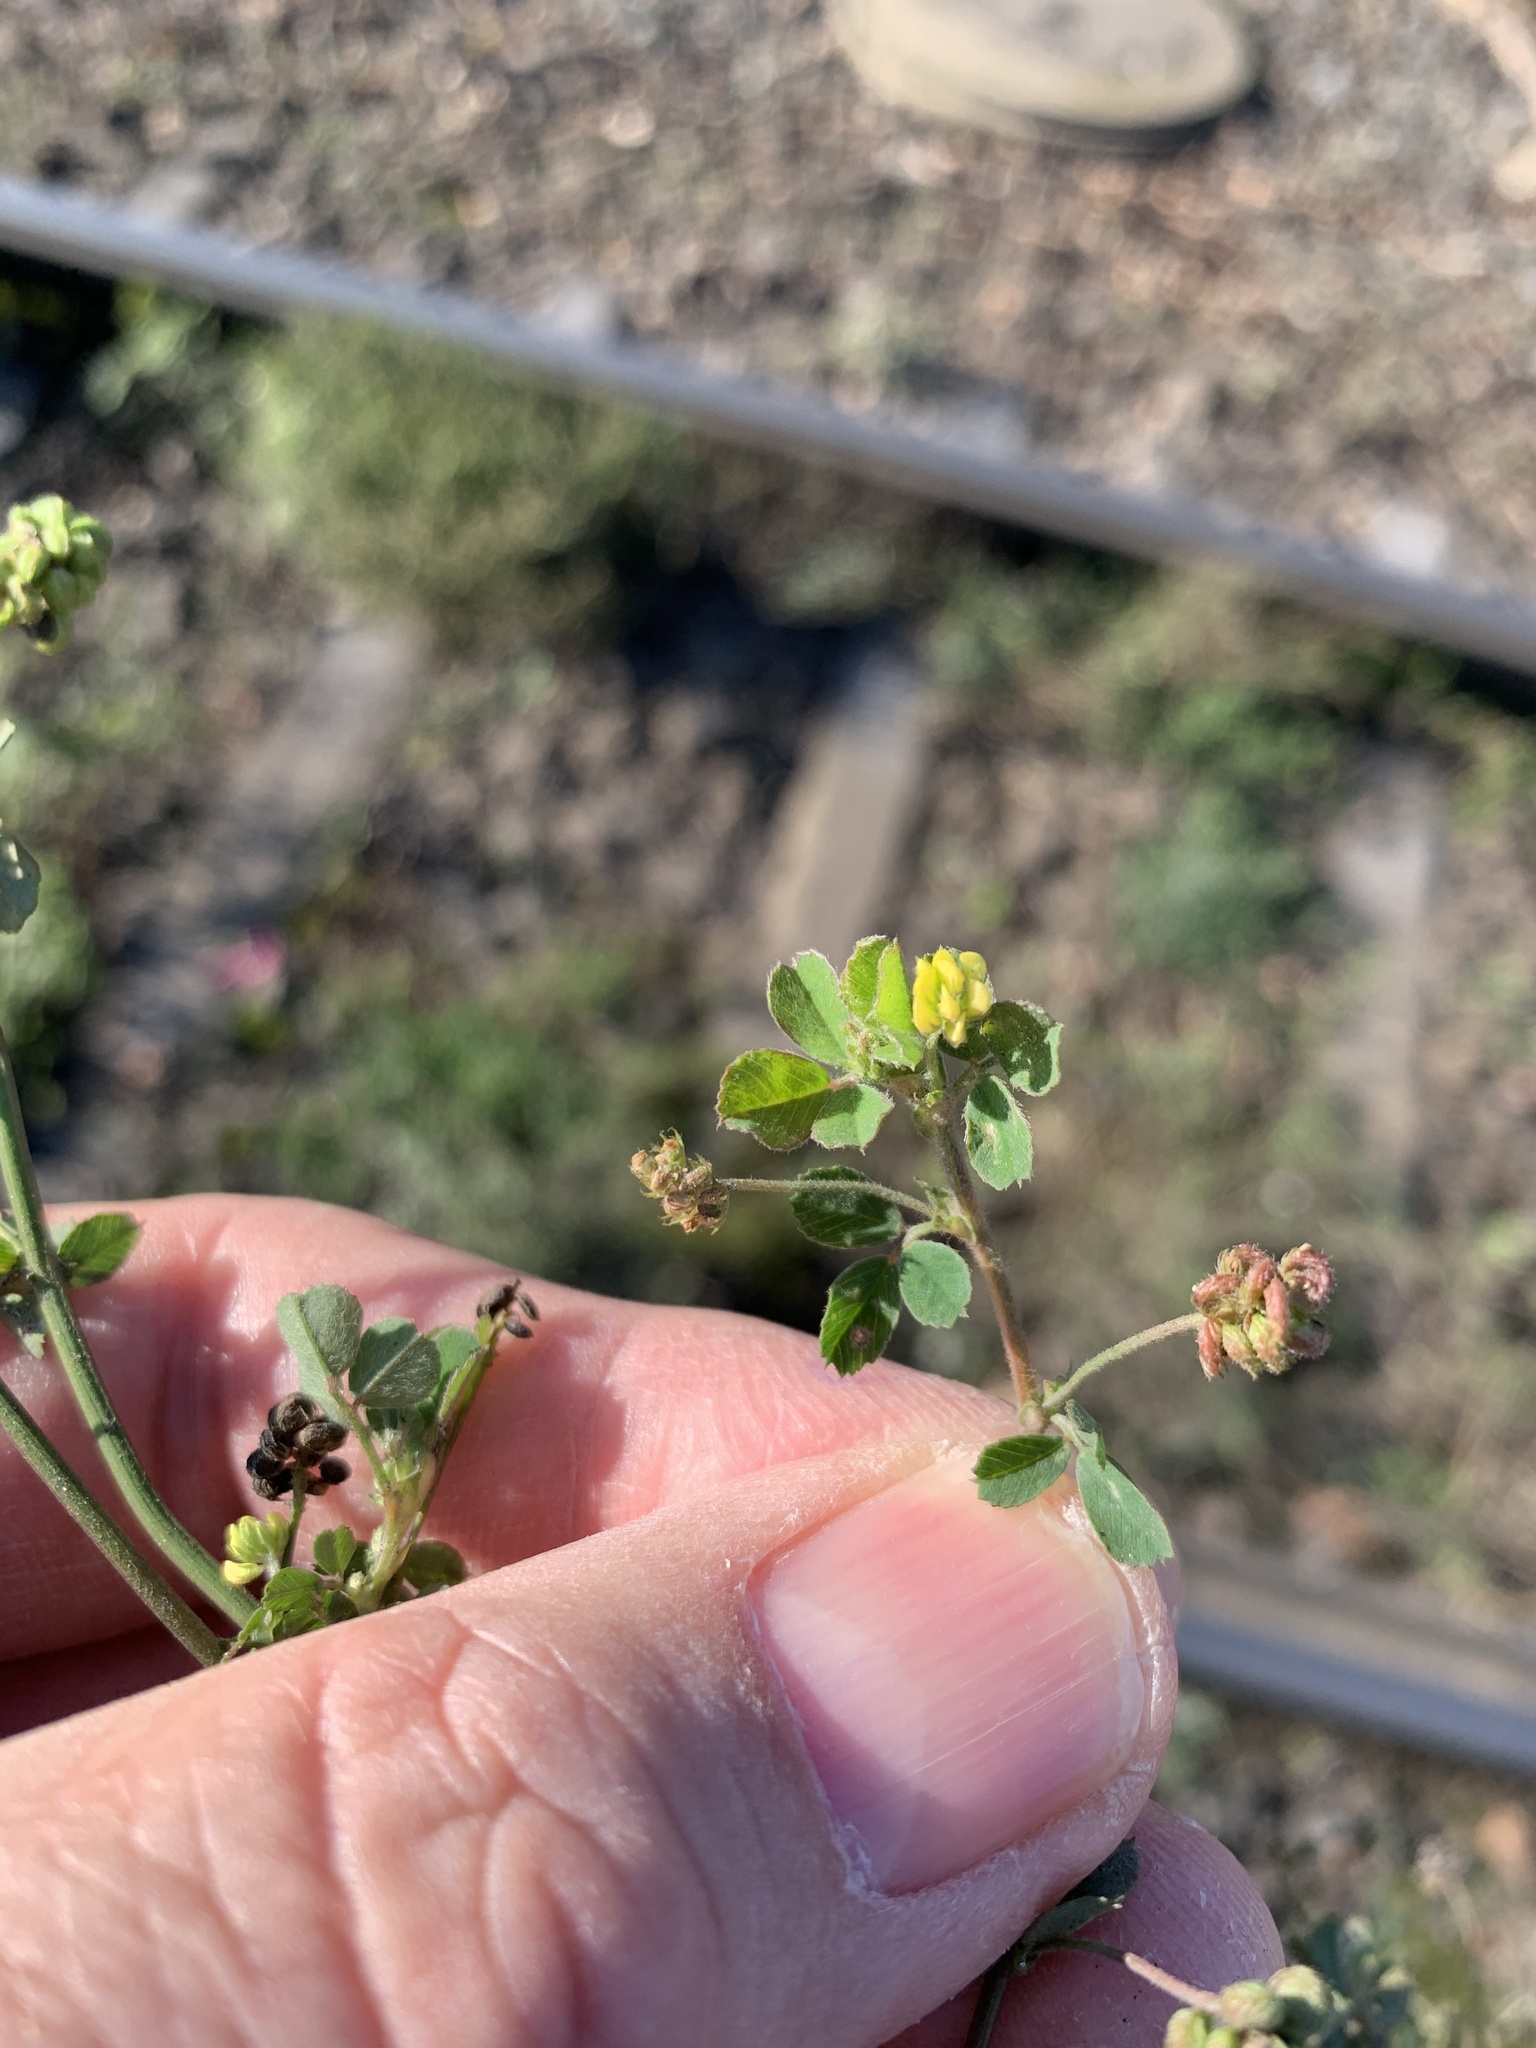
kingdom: Plantae
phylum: Tracheophyta
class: Magnoliopsida
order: Fabales
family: Fabaceae
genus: Medicago
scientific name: Medicago lupulina
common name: Black medick
